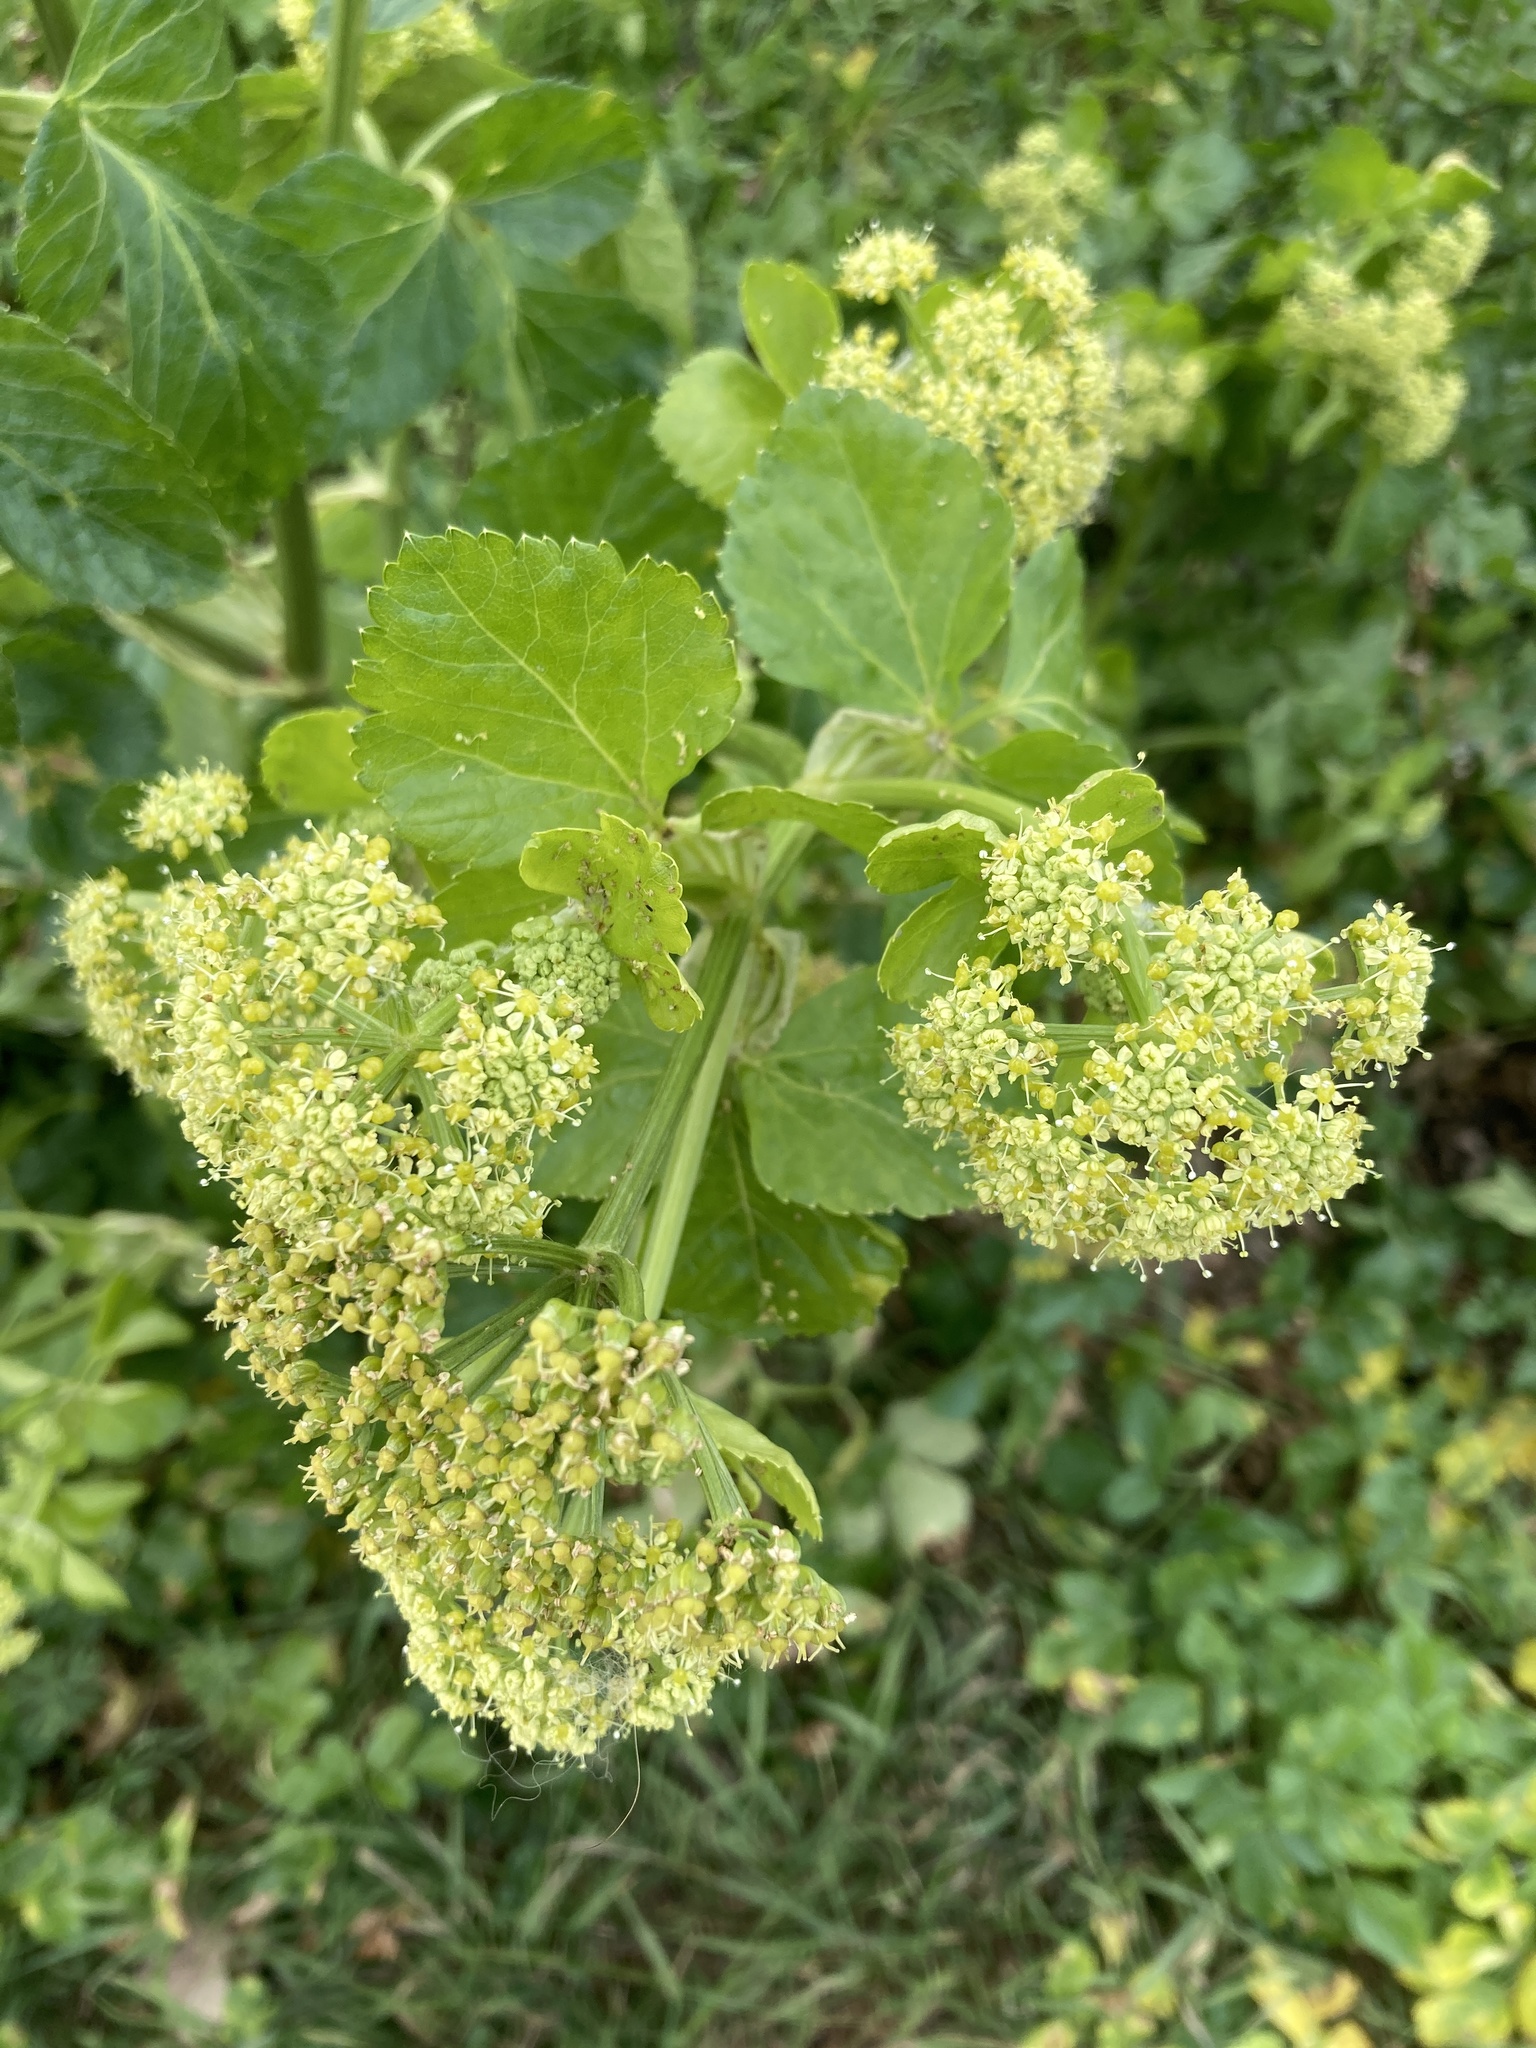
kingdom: Plantae
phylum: Tracheophyta
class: Magnoliopsida
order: Apiales
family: Apiaceae
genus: Smyrnium
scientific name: Smyrnium olusatrum
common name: Alexanders
